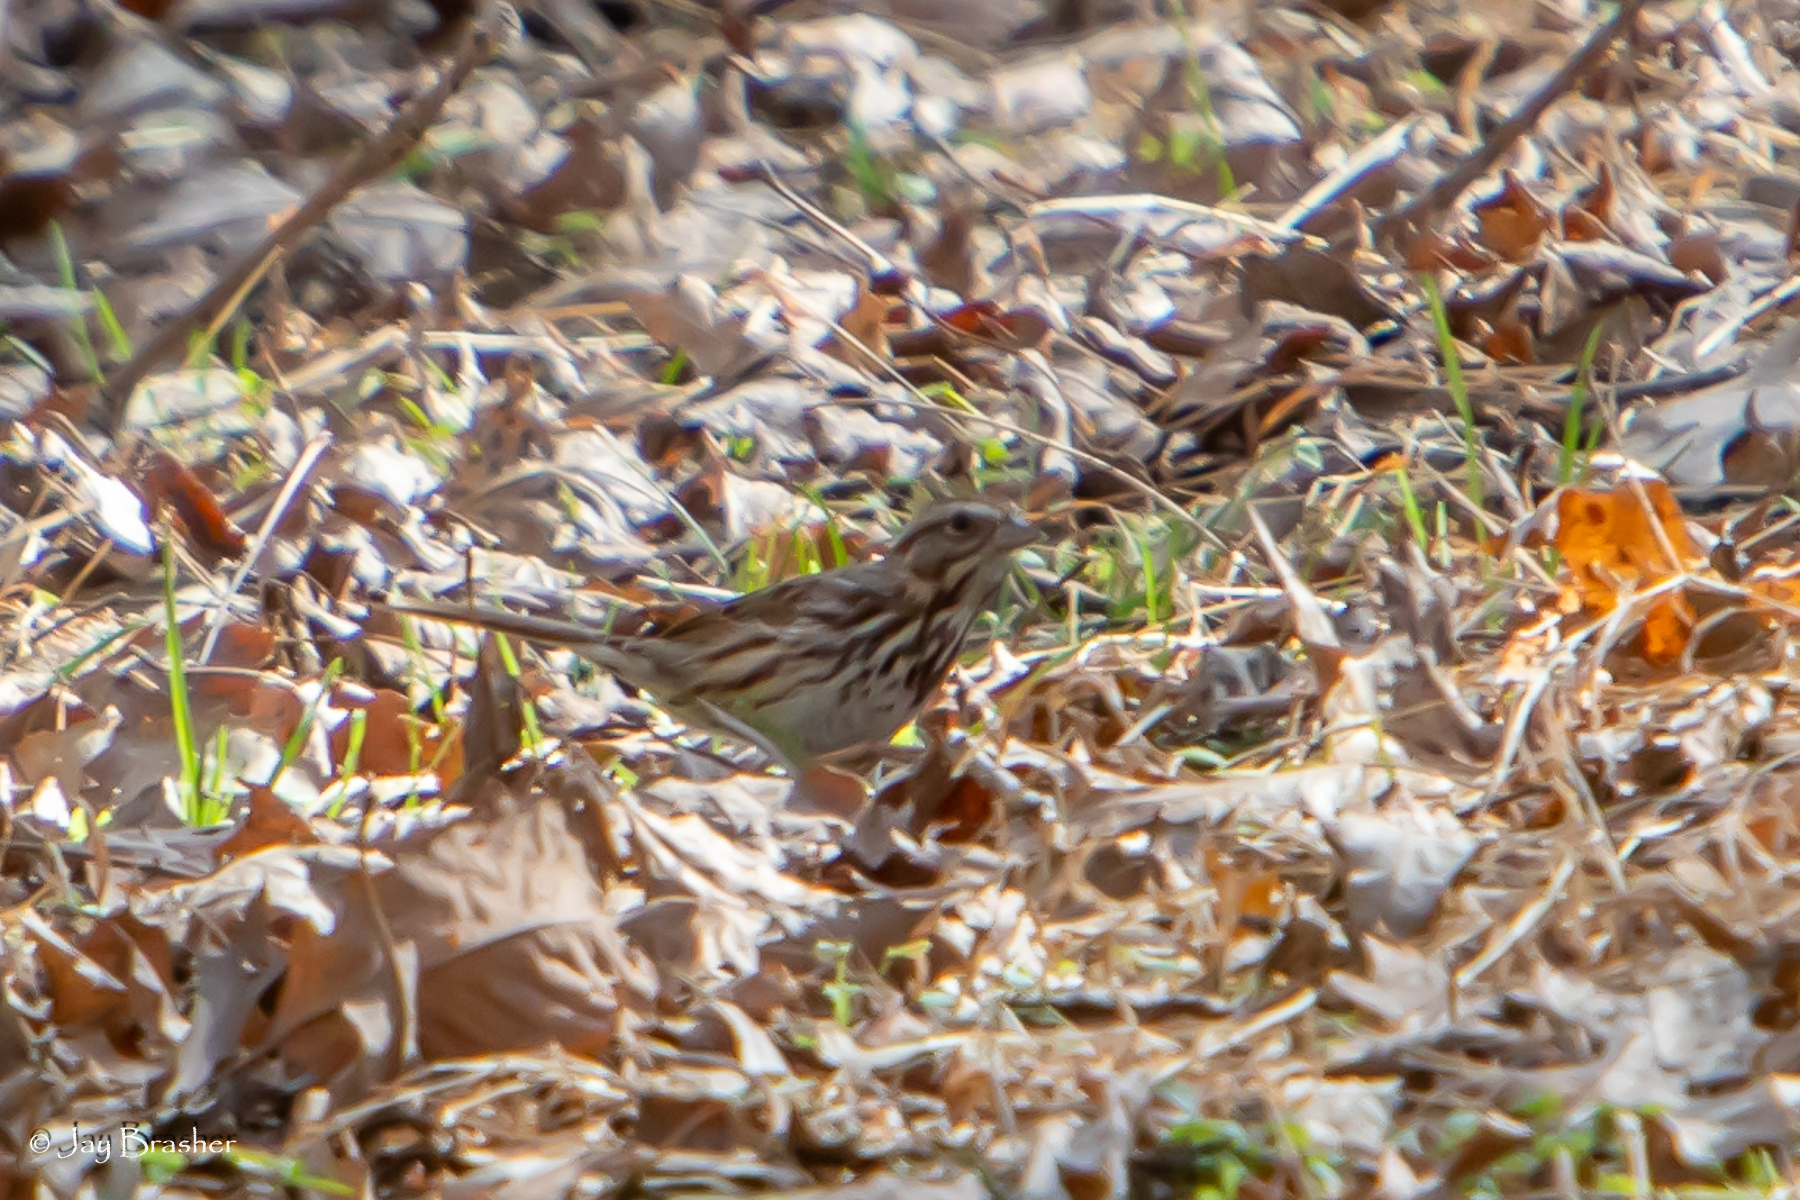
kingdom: Animalia
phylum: Chordata
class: Aves
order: Passeriformes
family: Passerellidae
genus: Melospiza
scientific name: Melospiza melodia
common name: Song sparrow
